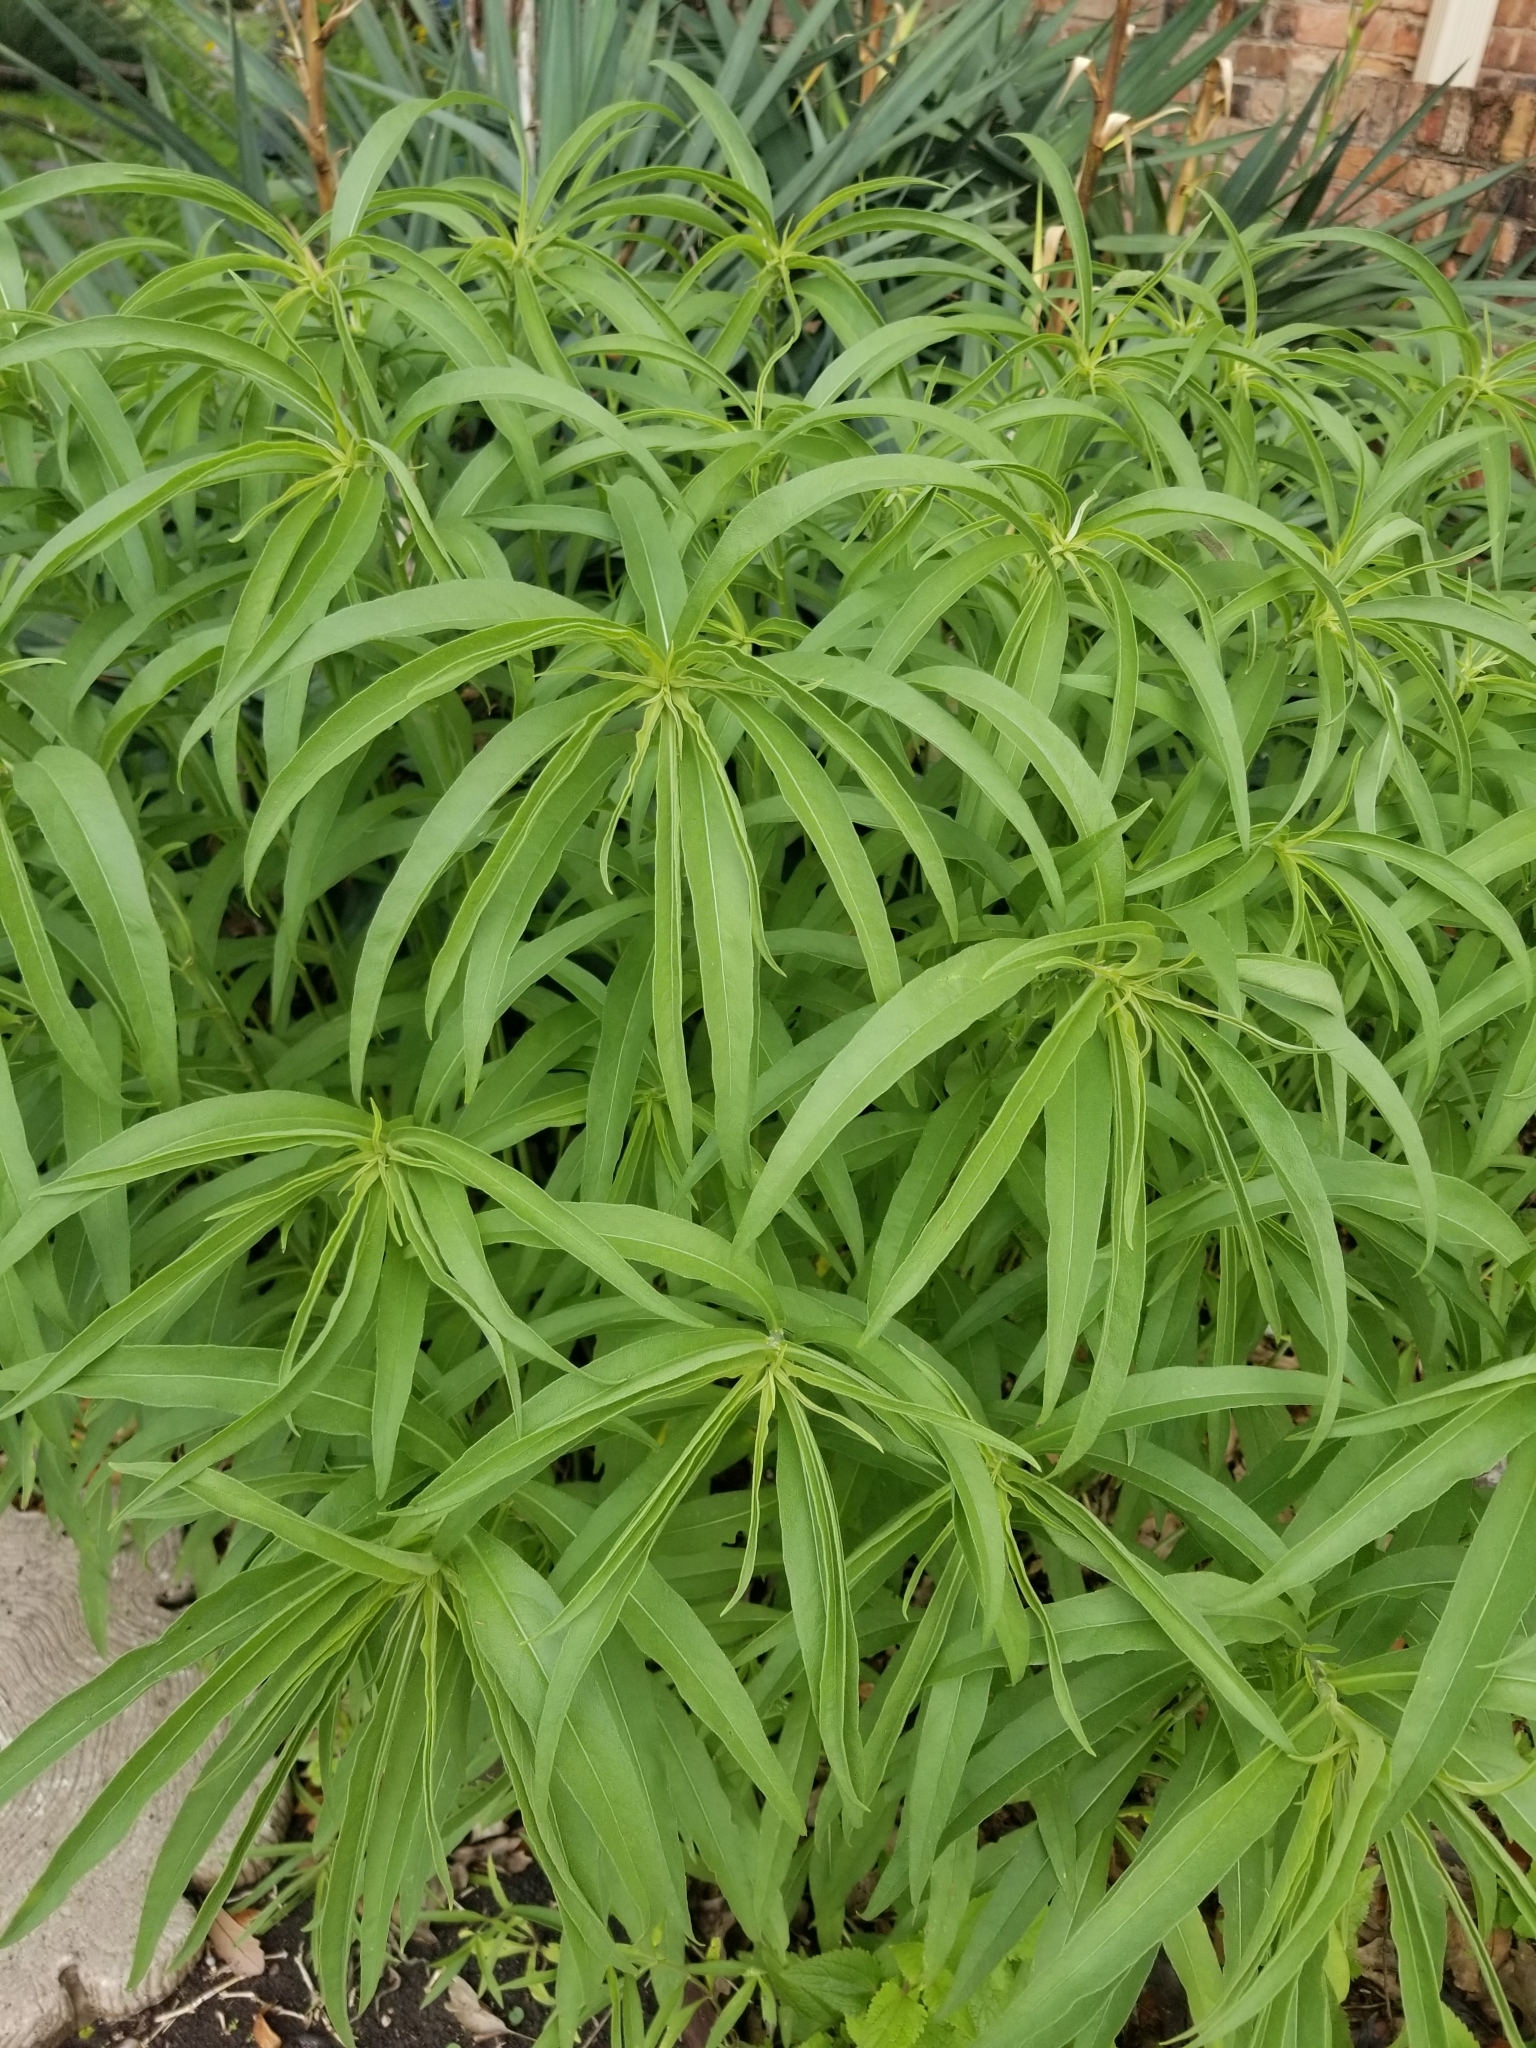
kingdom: Plantae
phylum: Tracheophyta
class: Magnoliopsida
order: Asterales
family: Asteraceae
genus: Helianthus
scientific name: Helianthus maximiliani
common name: Maximilian's sunflower
